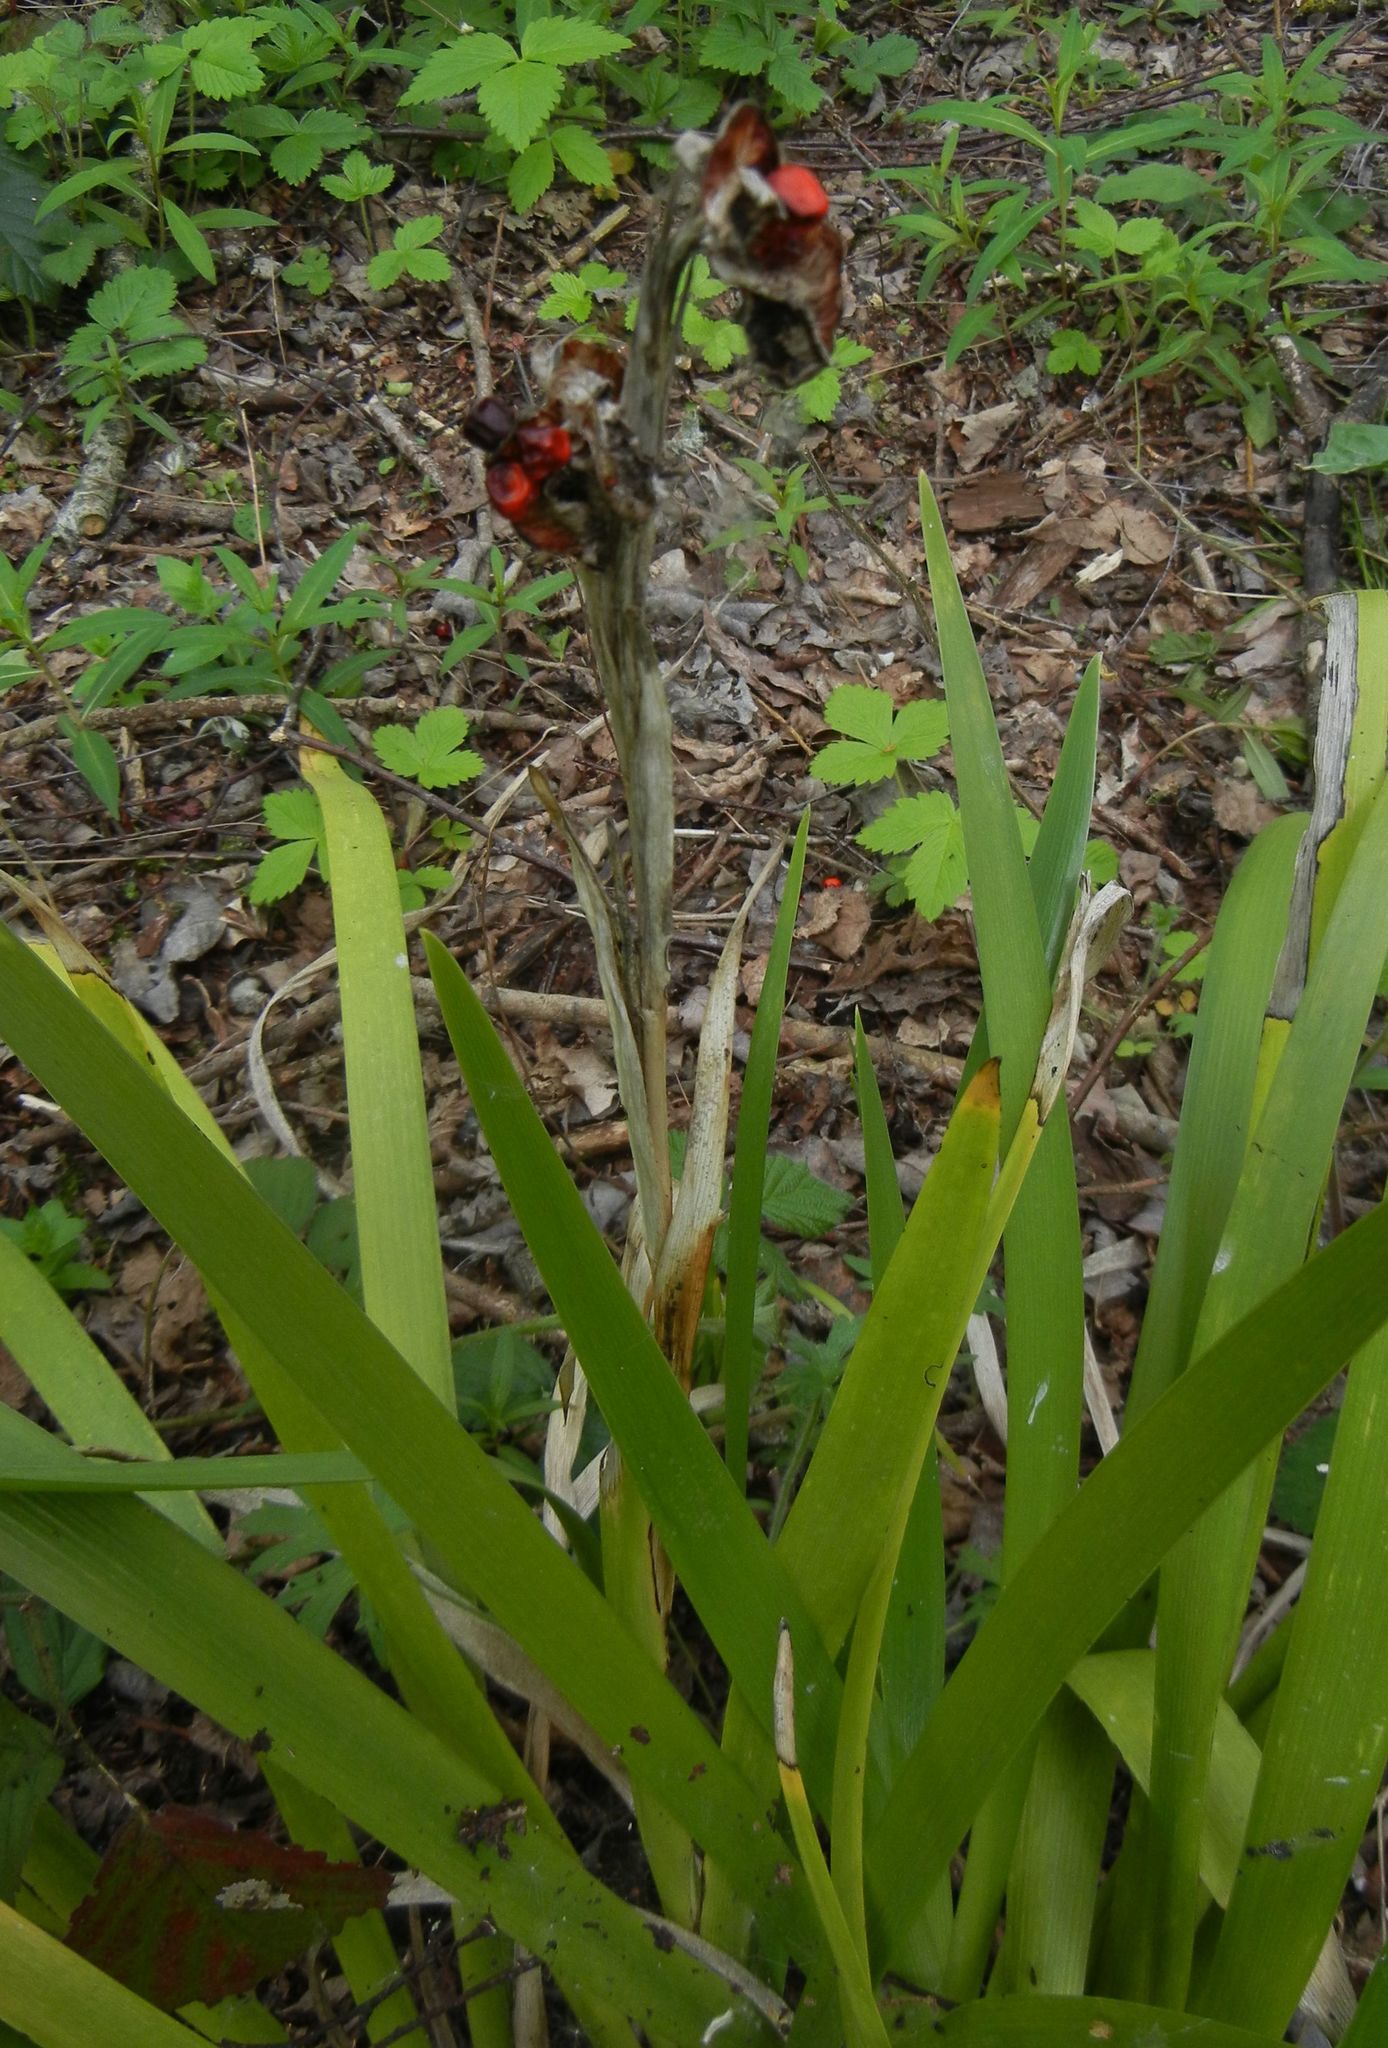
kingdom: Plantae
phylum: Tracheophyta
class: Liliopsida
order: Asparagales
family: Iridaceae
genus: Iris
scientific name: Iris foetidissima
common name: Stinking iris
